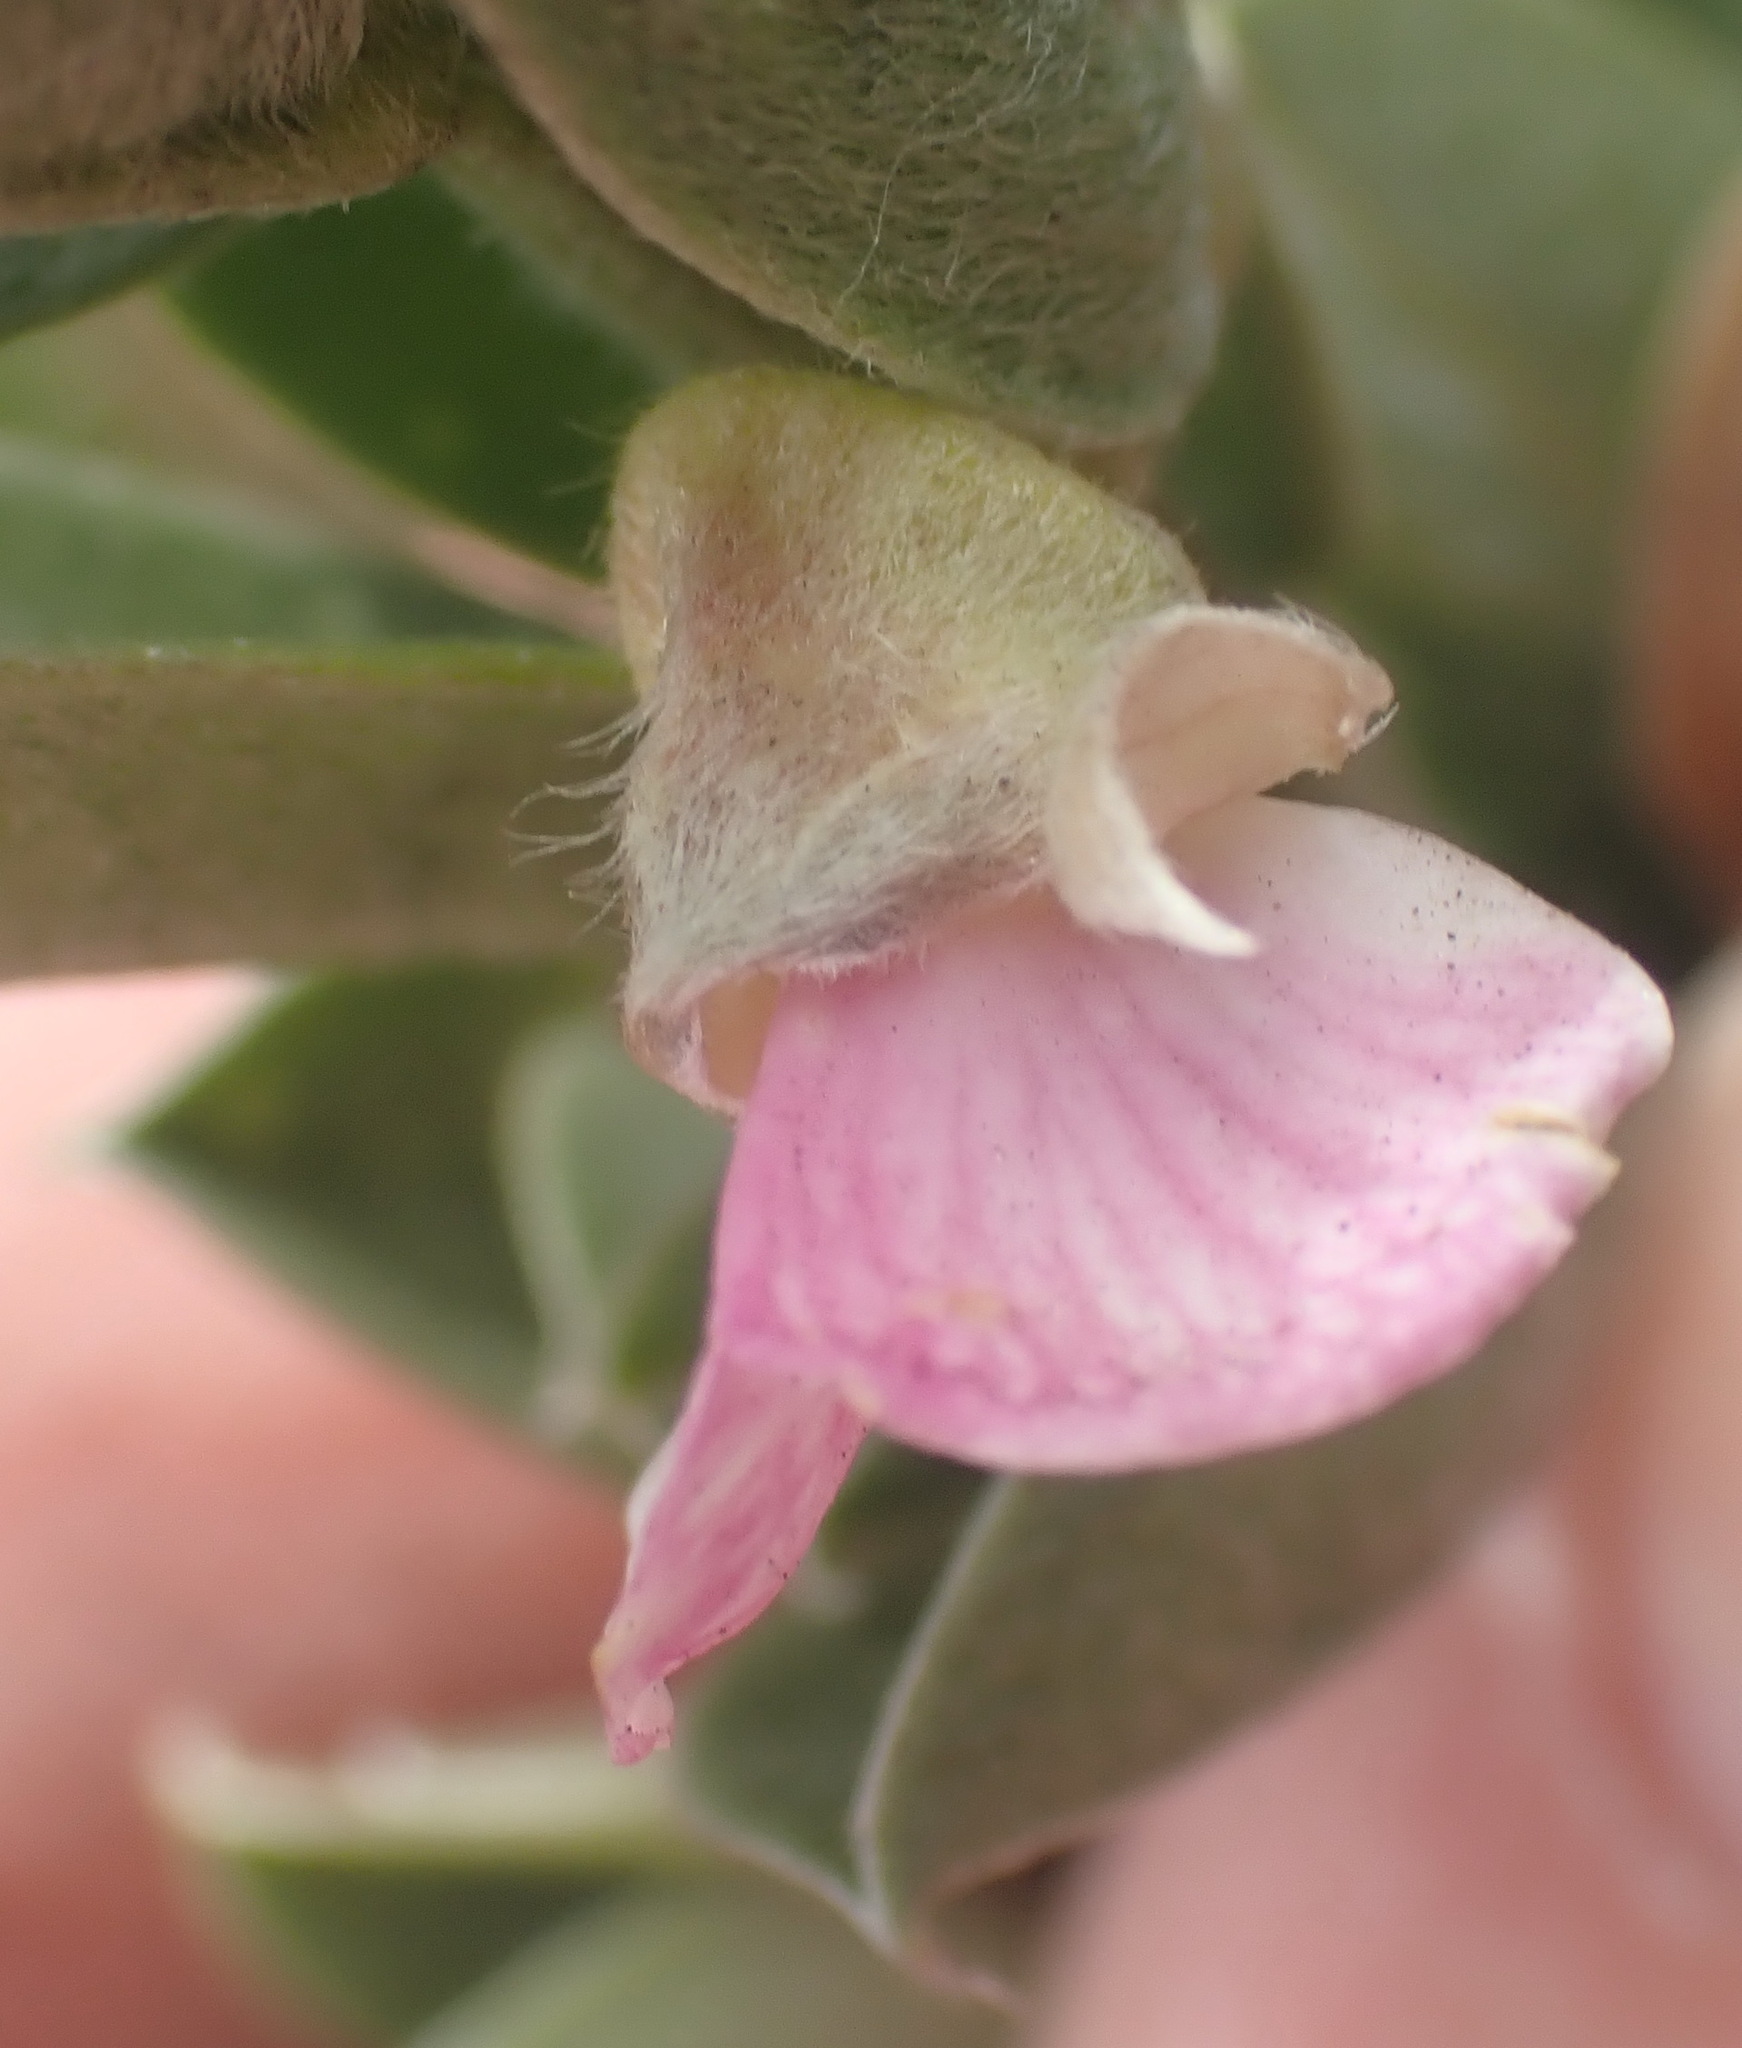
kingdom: Plantae
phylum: Tracheophyta
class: Magnoliopsida
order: Fabales
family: Fabaceae
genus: Podalyria
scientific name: Podalyria myrtillifolia
